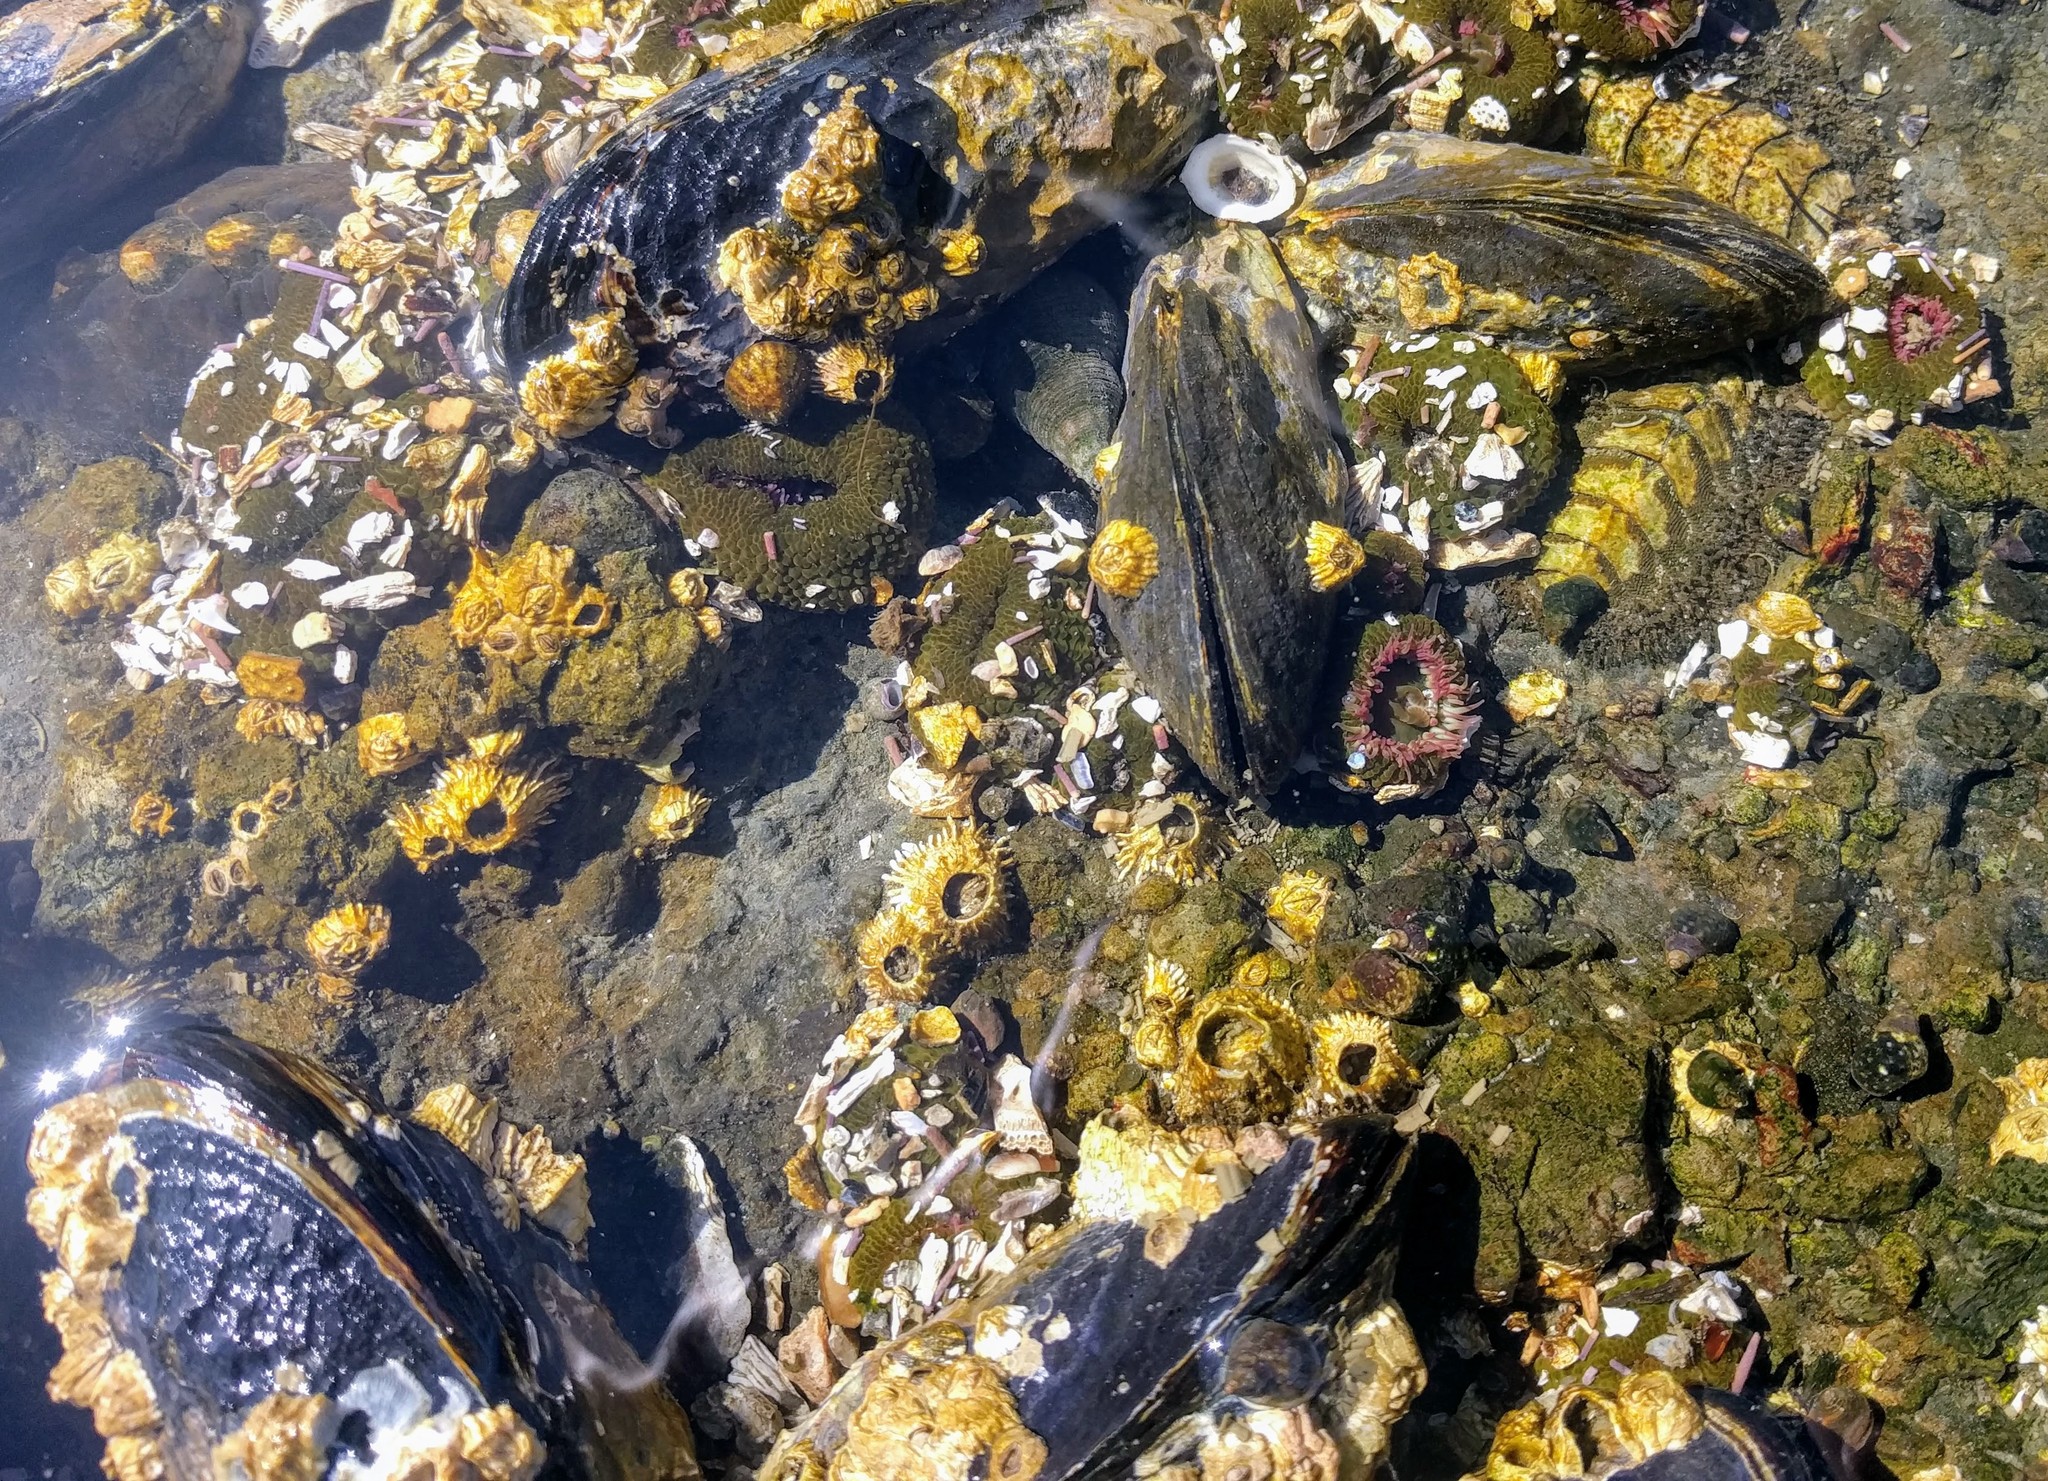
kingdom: Animalia
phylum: Mollusca
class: Polyplacophora
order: Chitonida
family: Mopaliidae
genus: Mopalia
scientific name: Mopalia muscosa
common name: Mossy chiton
